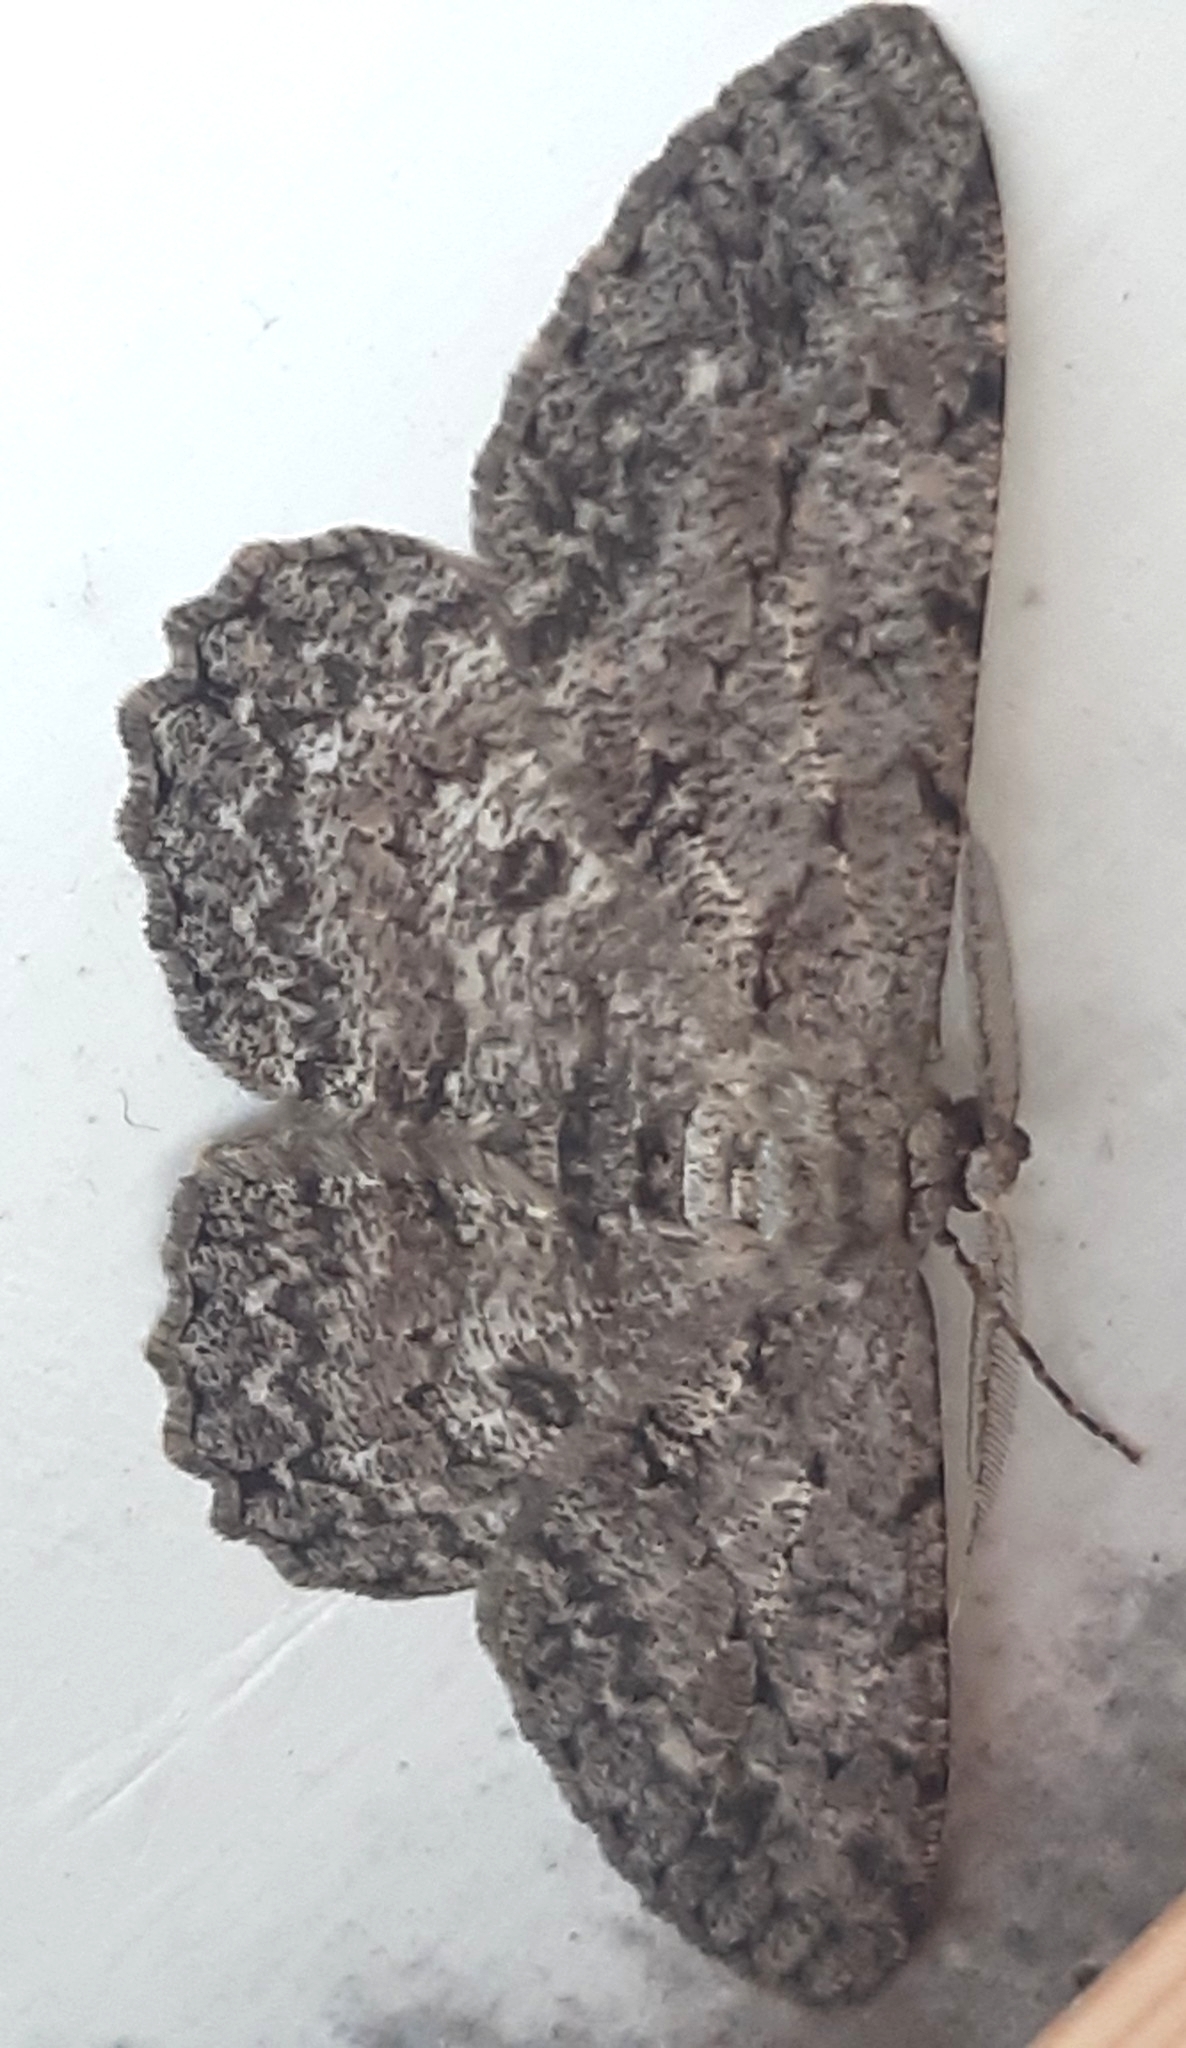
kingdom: Animalia
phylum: Arthropoda
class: Insecta
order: Lepidoptera
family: Geometridae
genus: Hypomecis
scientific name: Hypomecis punctinalis
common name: Pale oak beauty
